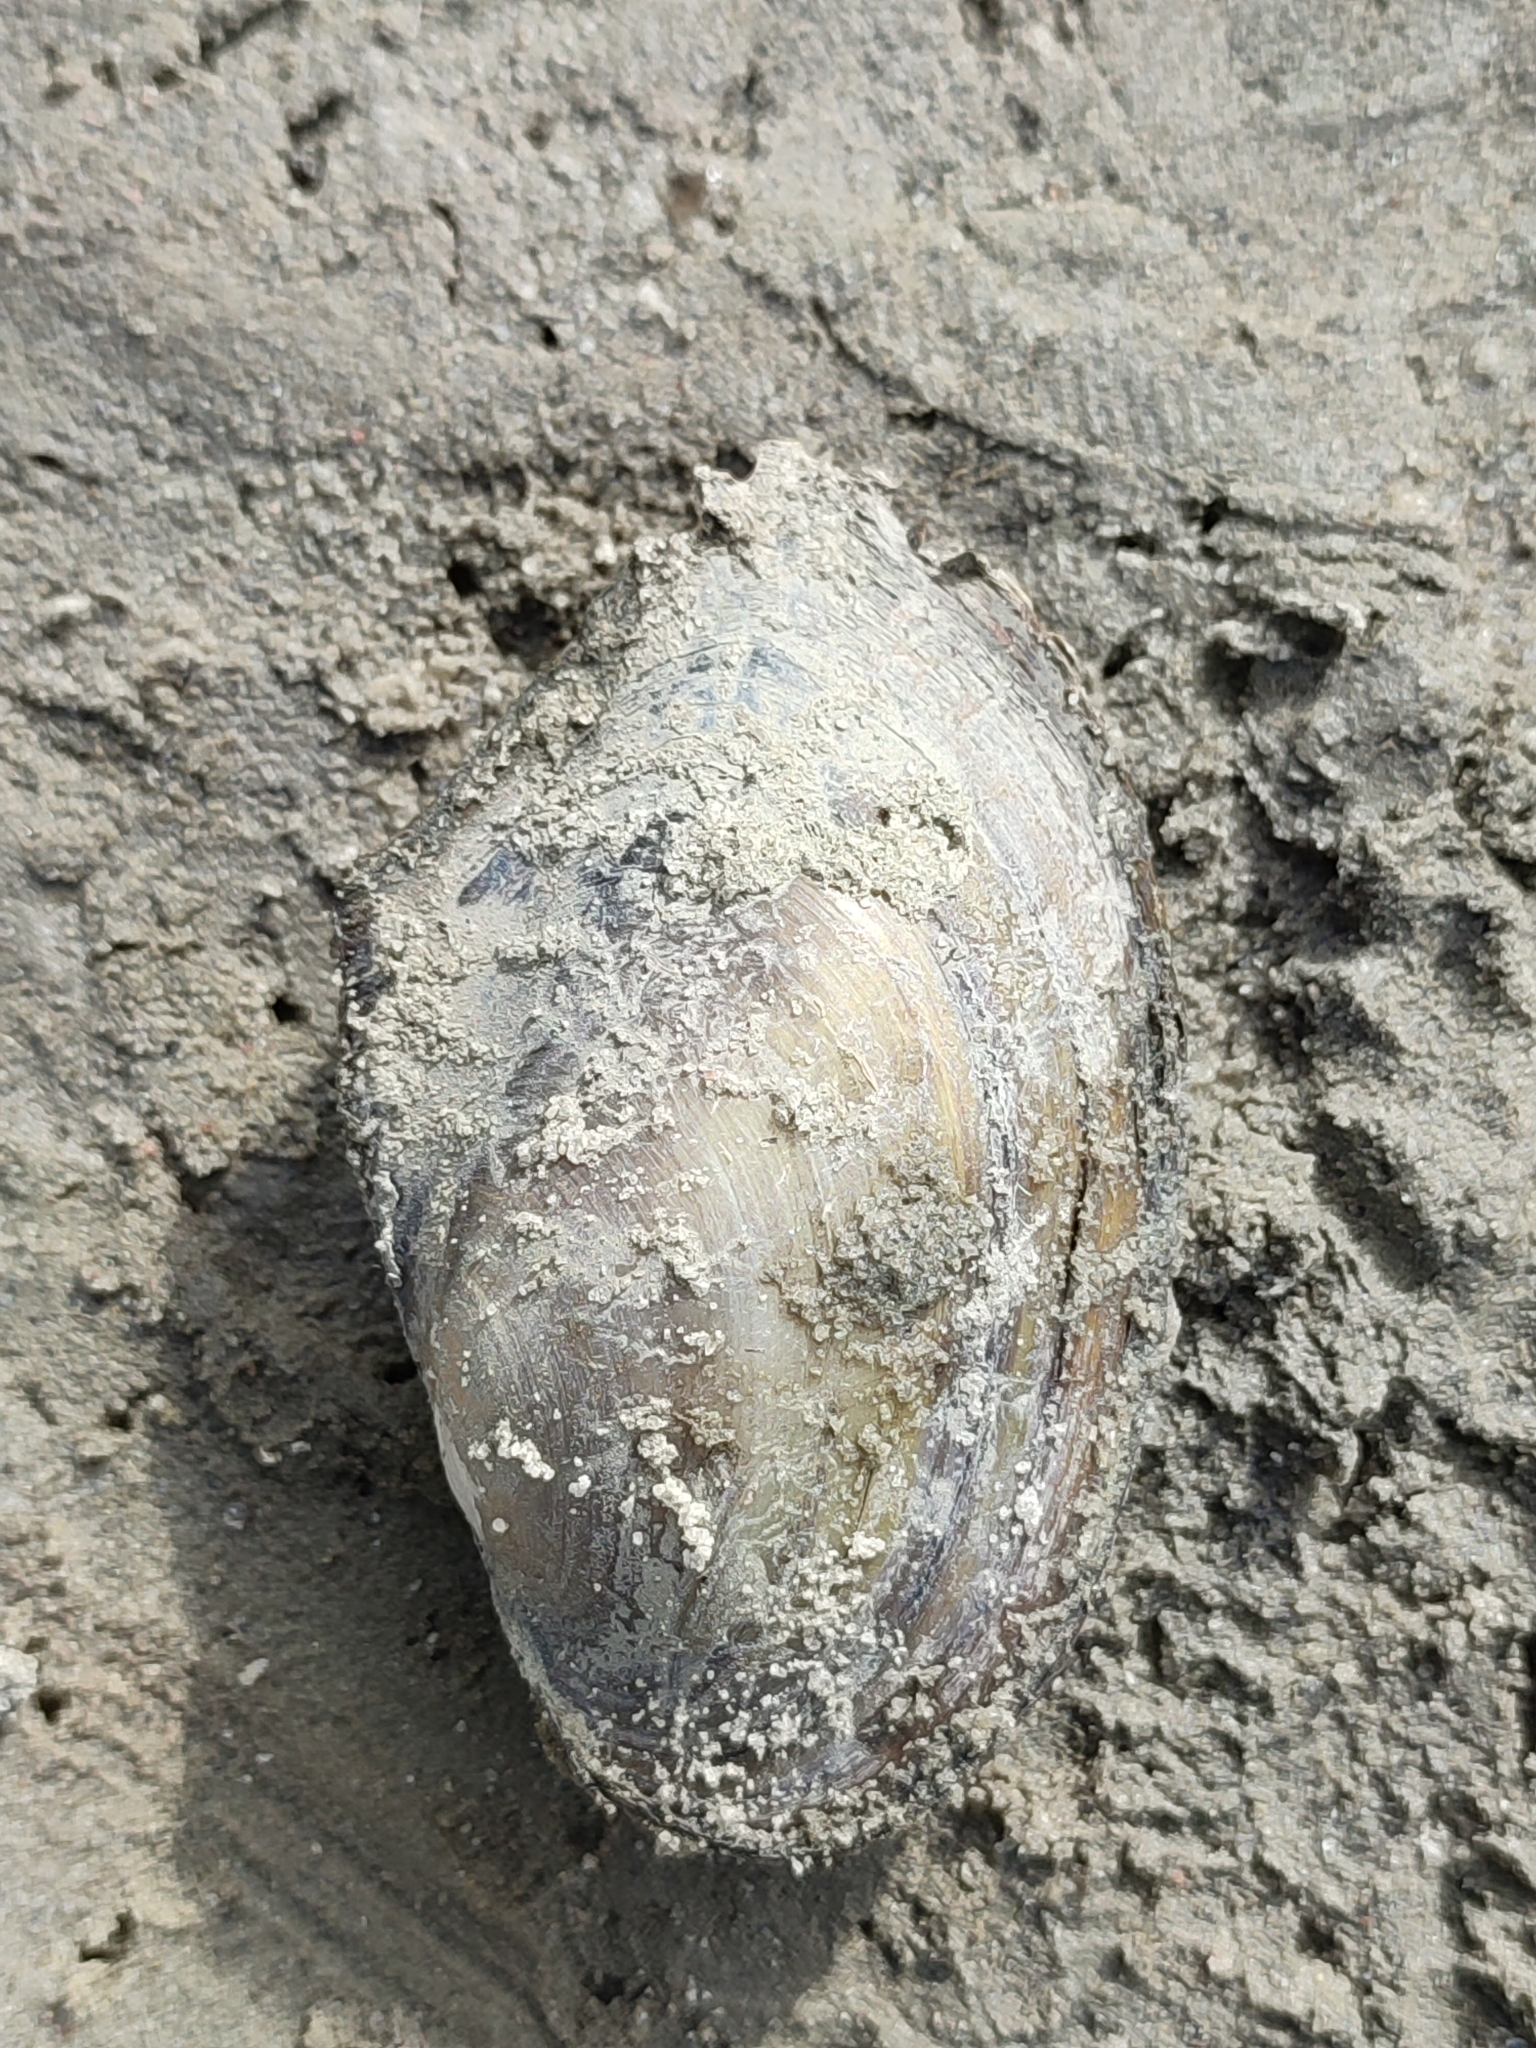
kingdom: Animalia
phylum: Mollusca
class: Bivalvia
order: Unionida
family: Unionidae
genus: Anodonta
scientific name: Anodonta anatina
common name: Duck mussel
